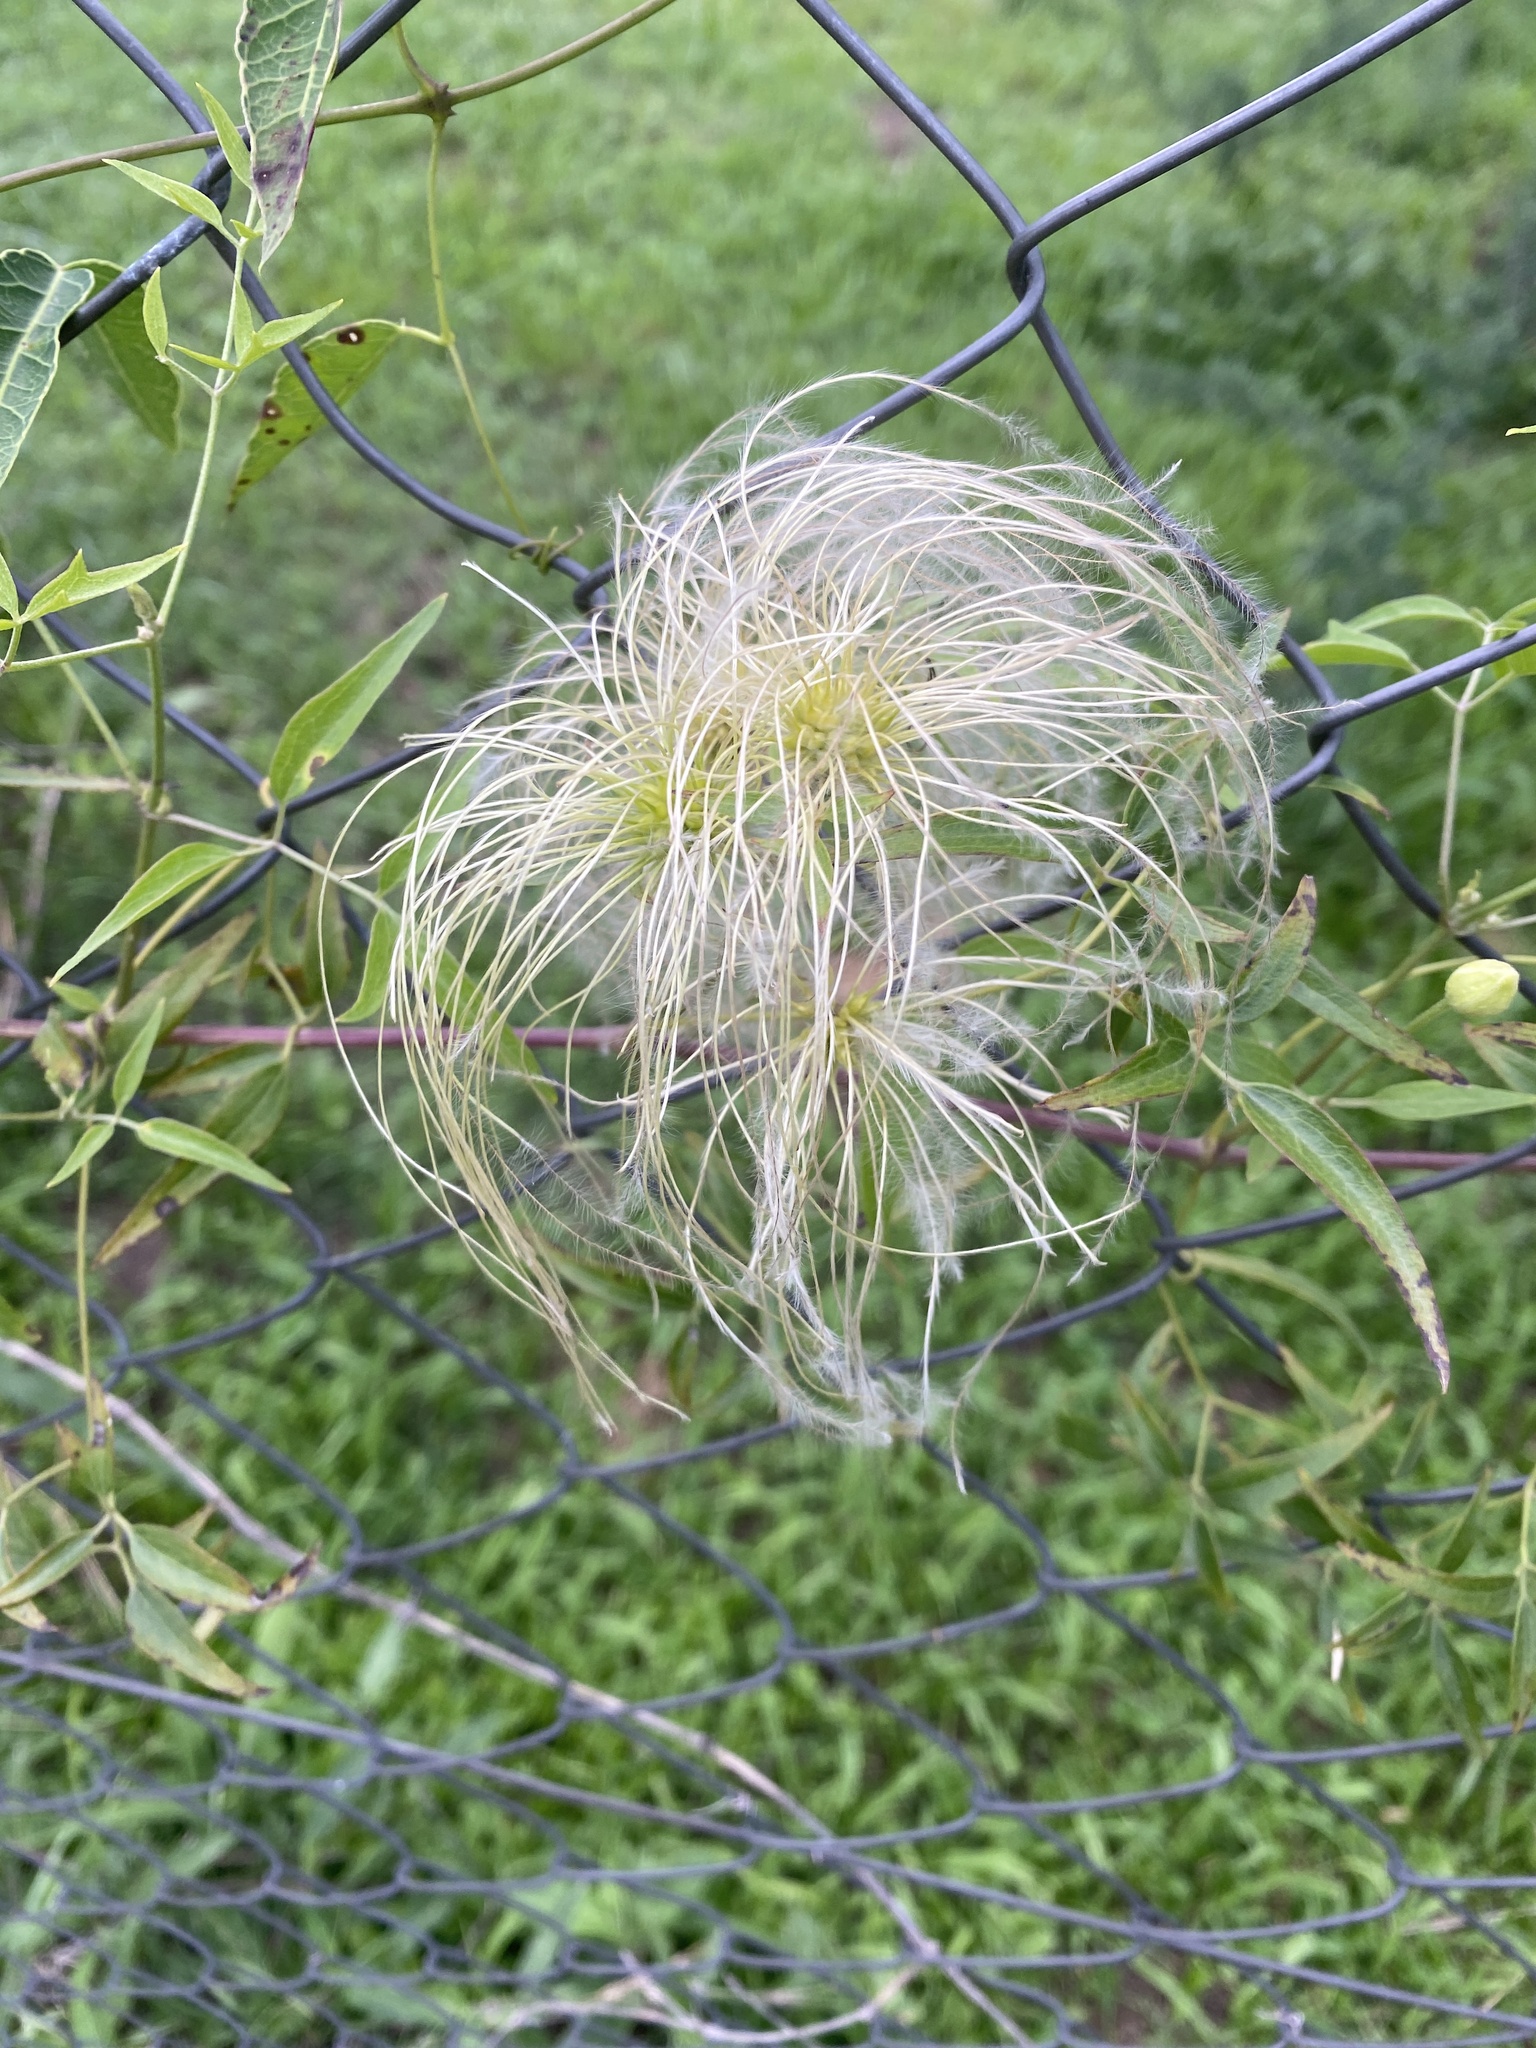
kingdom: Plantae
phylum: Tracheophyta
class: Magnoliopsida
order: Ranunculales
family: Ranunculaceae
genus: Clematis
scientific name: Clematis montevidensis
